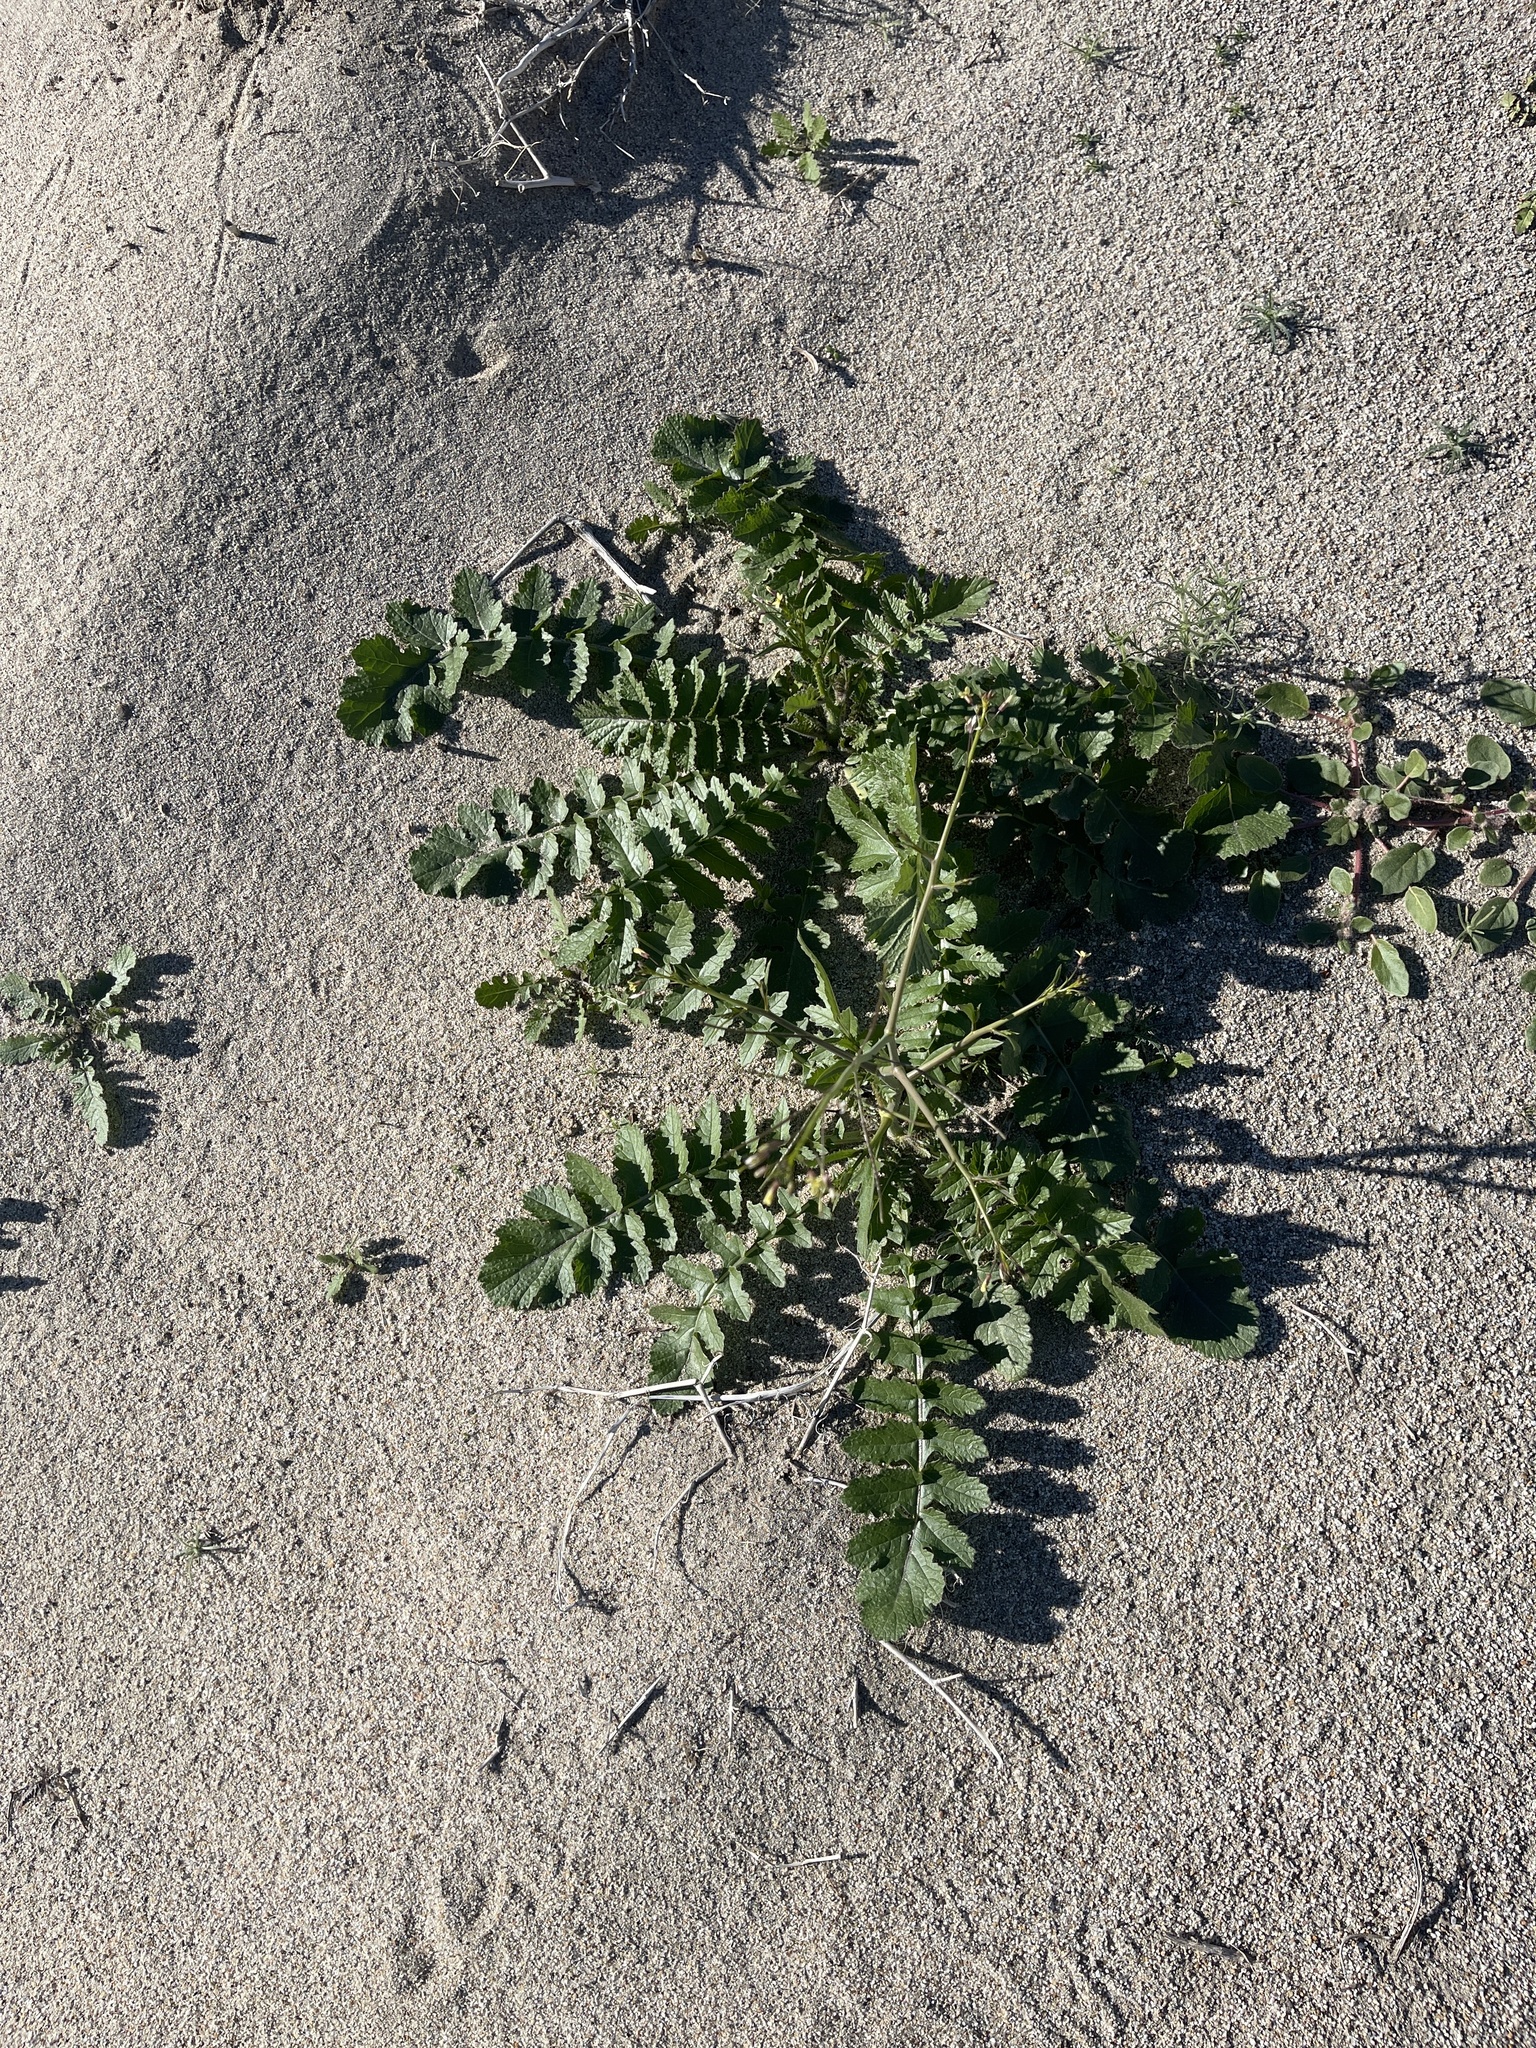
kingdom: Plantae
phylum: Tracheophyta
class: Magnoliopsida
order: Brassicales
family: Brassicaceae
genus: Brassica
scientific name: Brassica tournefortii
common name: Pale cabbage
